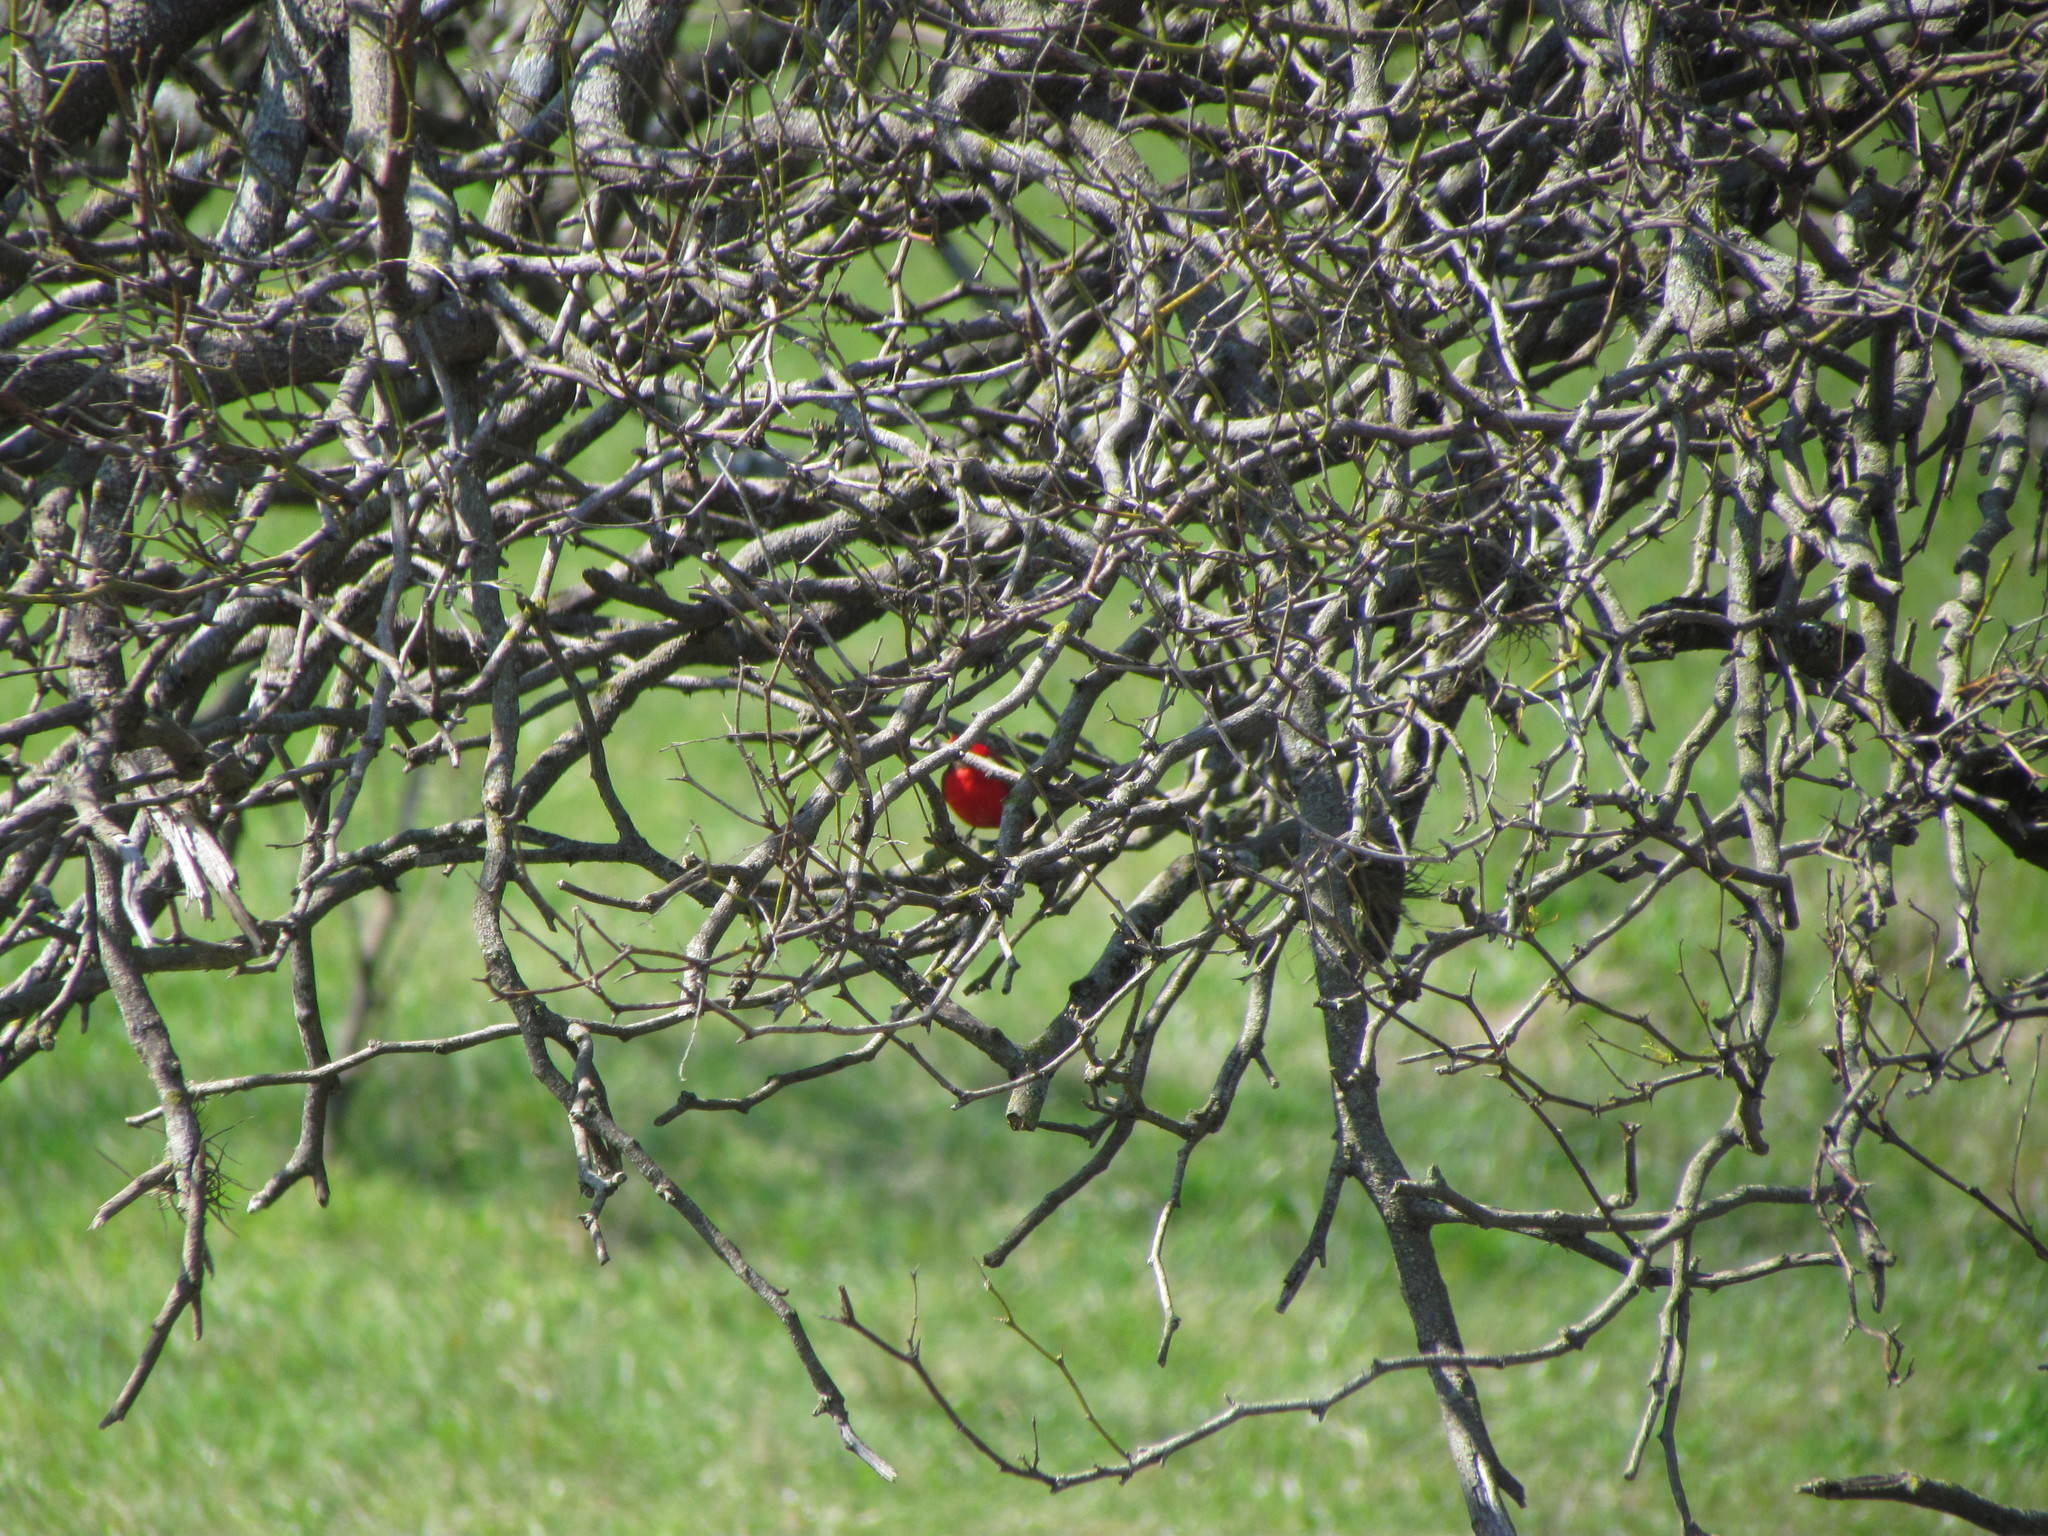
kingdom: Animalia
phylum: Chordata
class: Aves
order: Passeriformes
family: Tyrannidae
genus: Pyrocephalus
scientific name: Pyrocephalus rubinus
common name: Vermilion flycatcher
